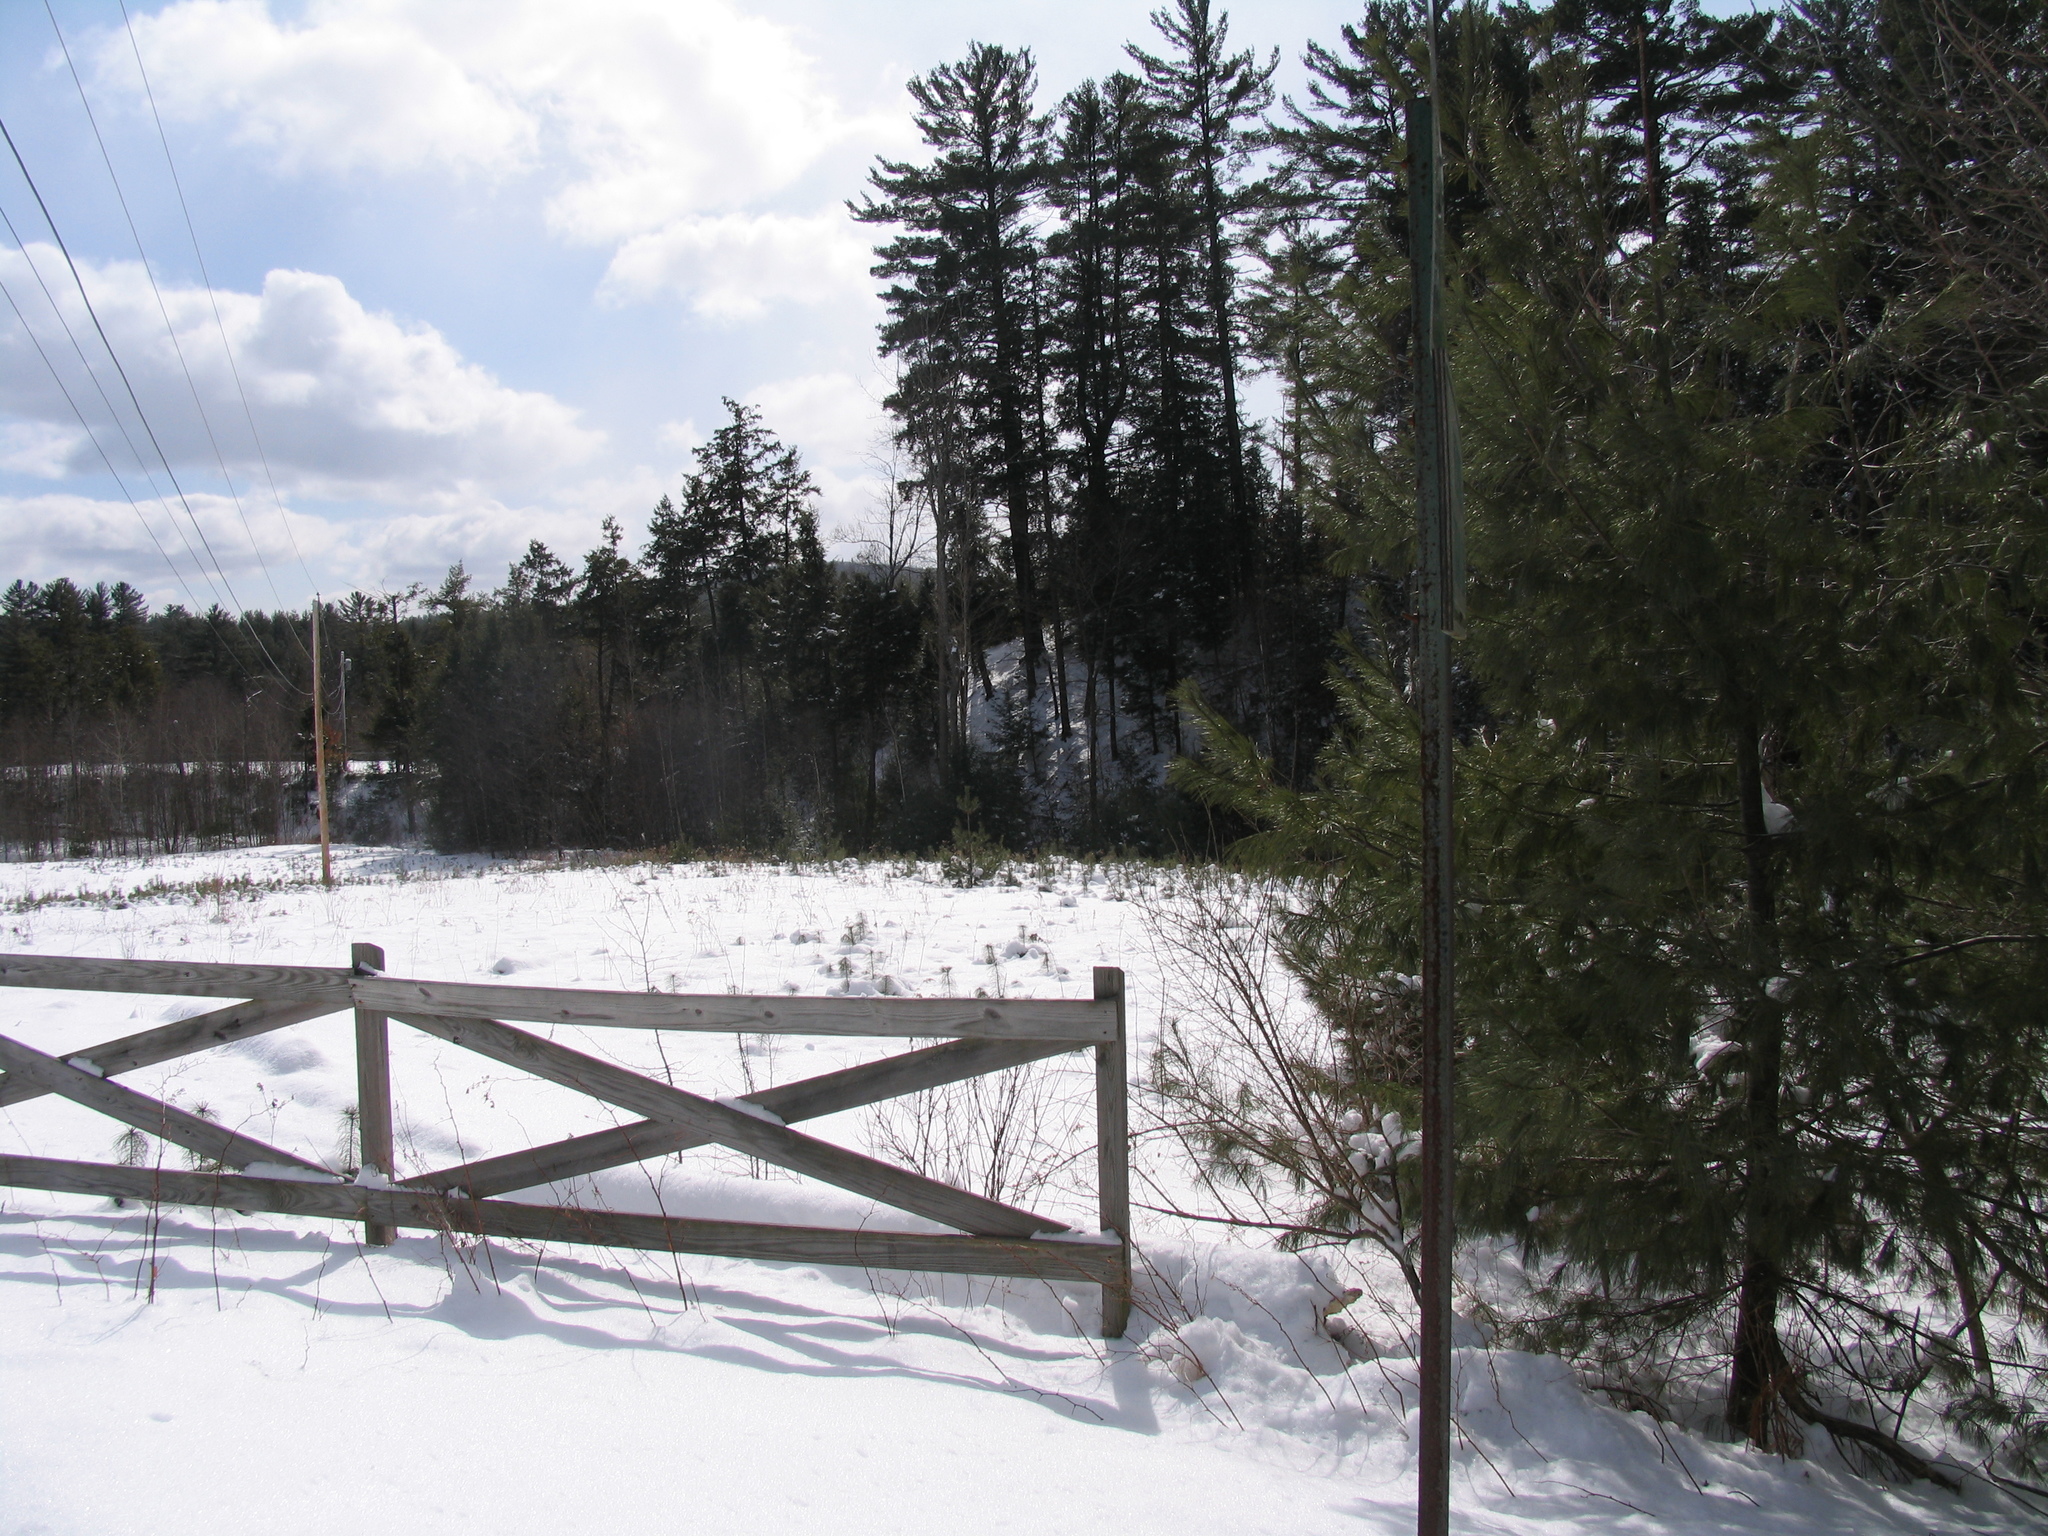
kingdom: Plantae
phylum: Tracheophyta
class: Pinopsida
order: Pinales
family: Pinaceae
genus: Pinus
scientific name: Pinus strobus
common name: Weymouth pine
